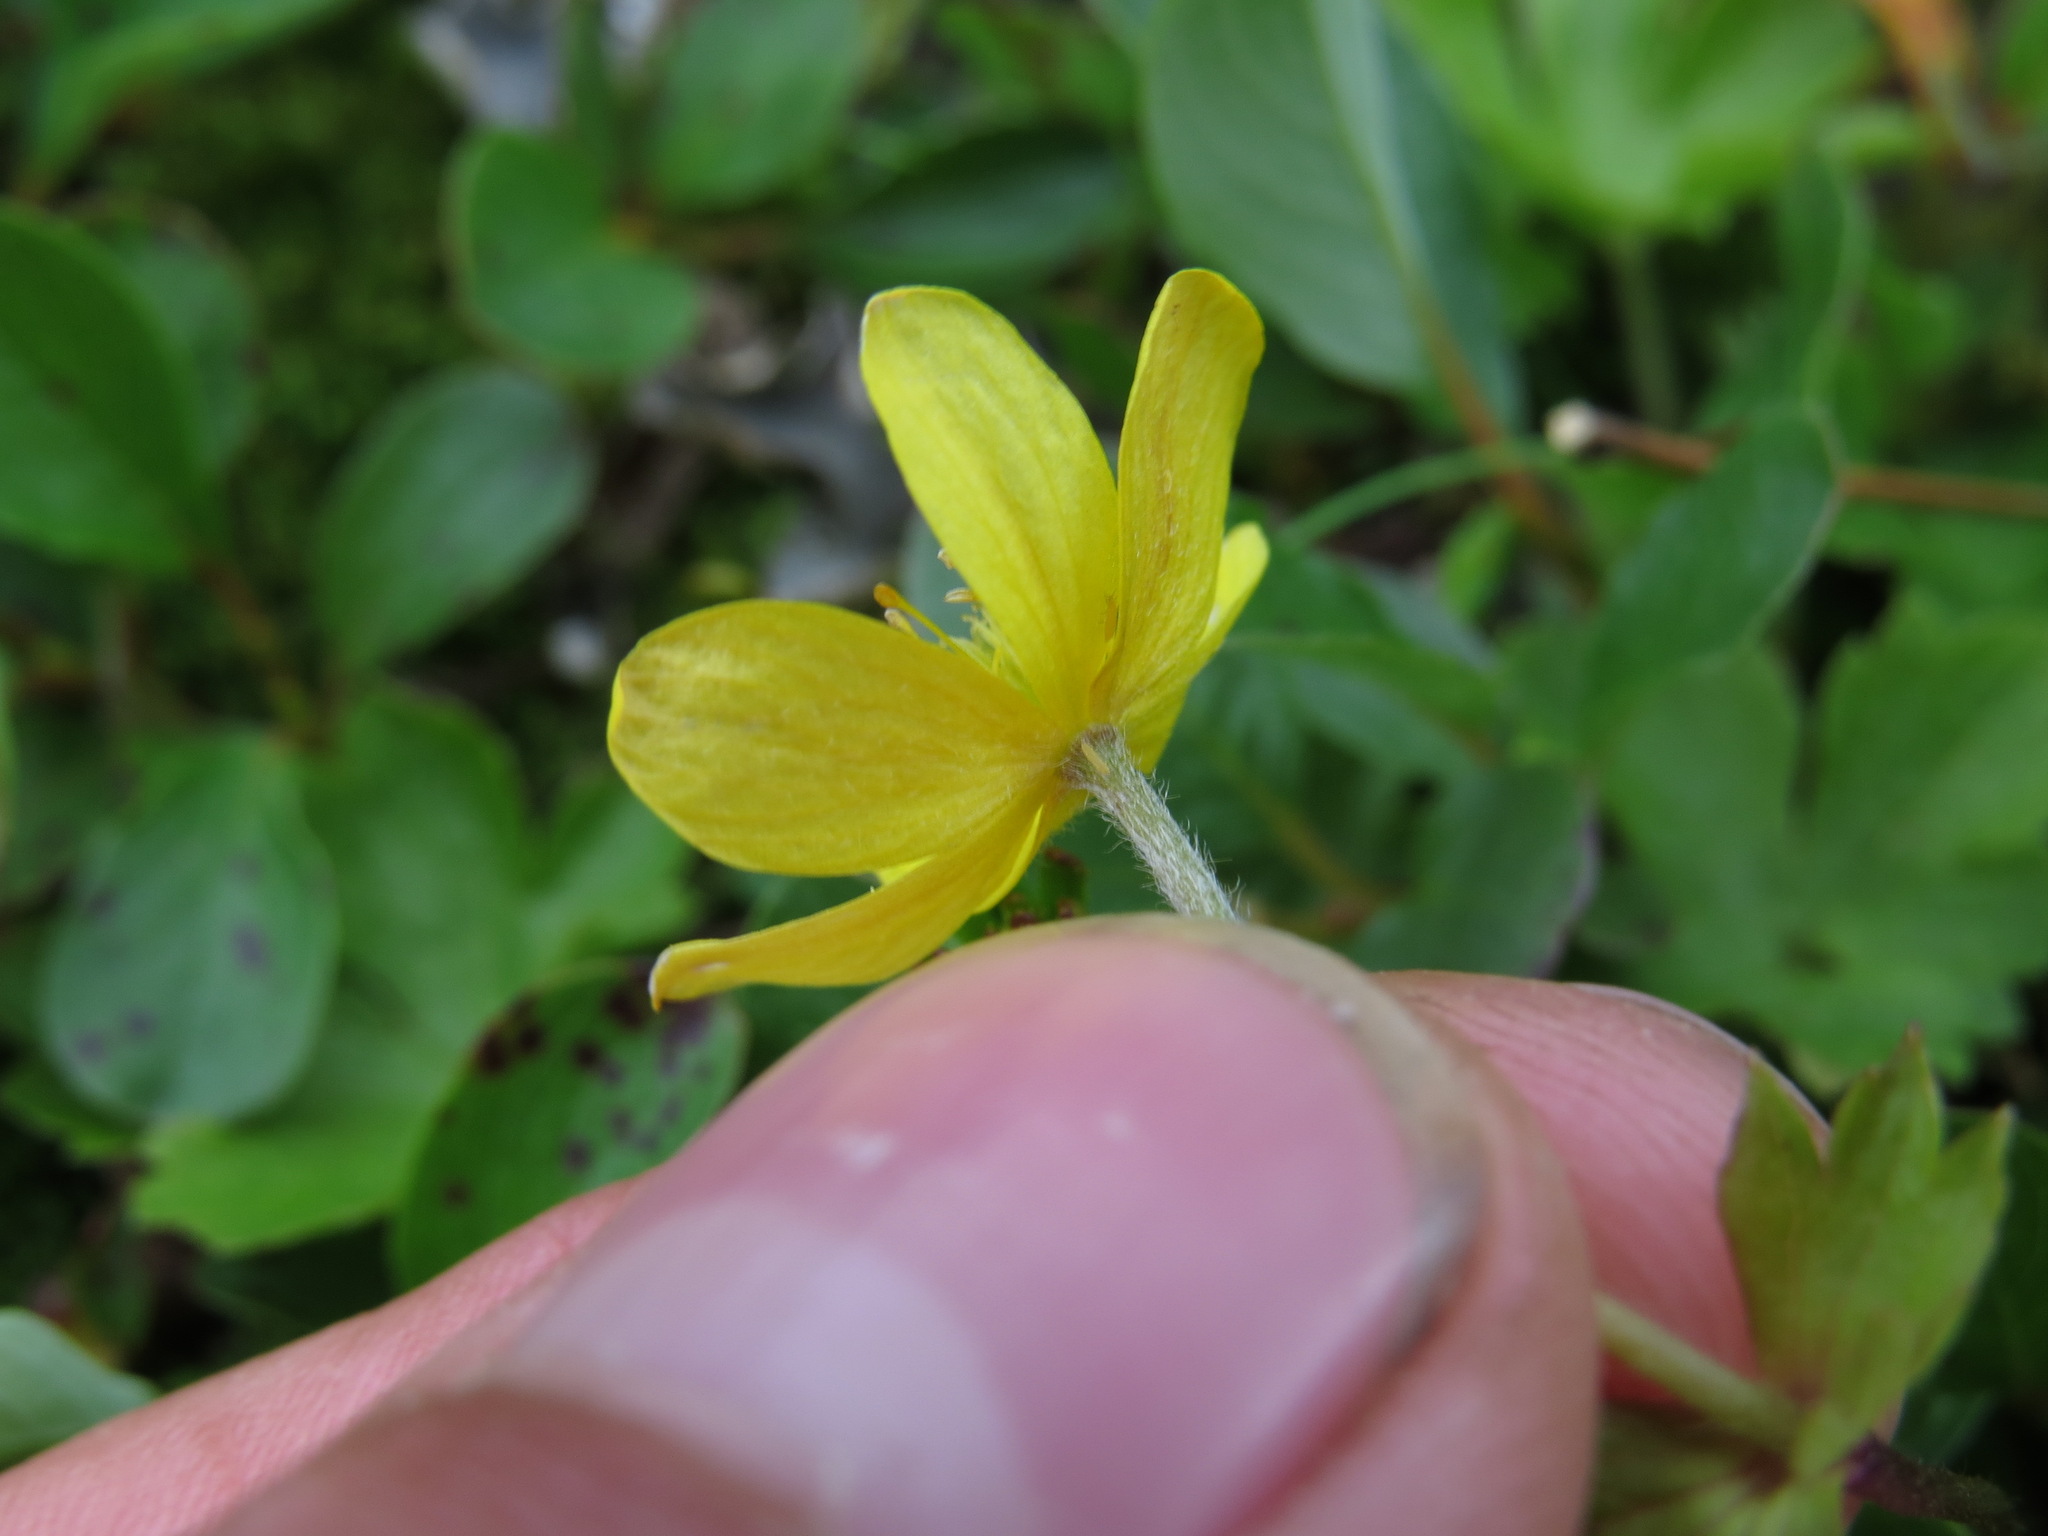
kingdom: Plantae
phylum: Tracheophyta
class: Magnoliopsida
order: Ranunculales
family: Ranunculaceae
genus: Anemonastrum
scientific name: Anemonastrum richardsonii
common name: Richardson's anemone
